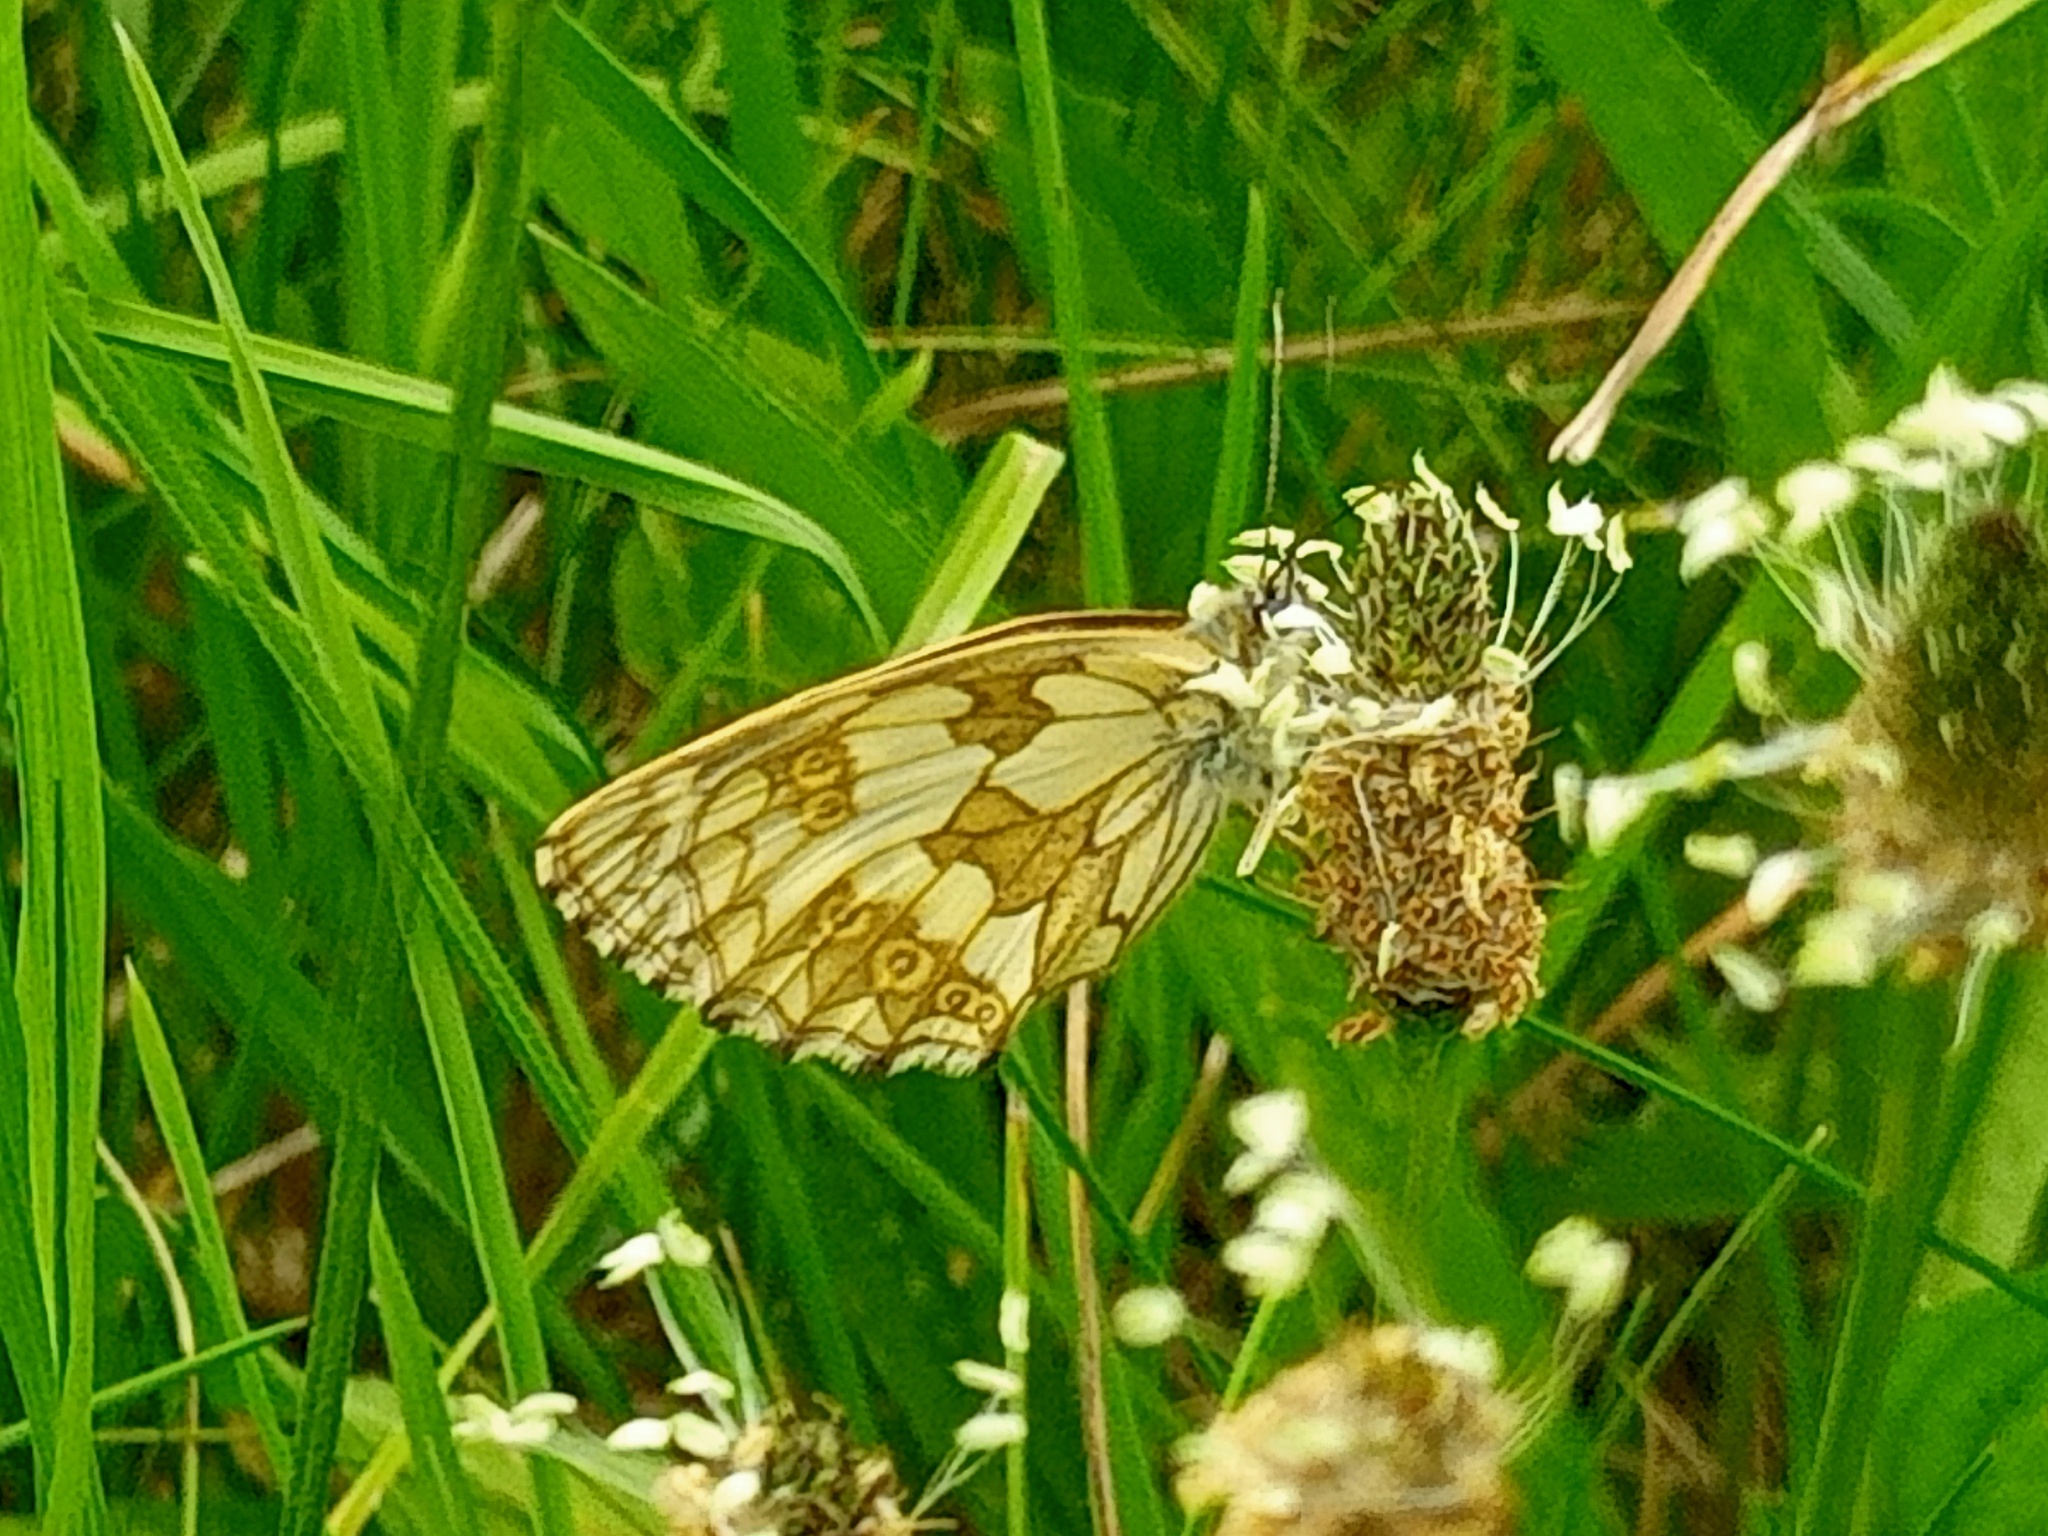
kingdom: Animalia
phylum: Arthropoda
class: Insecta
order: Lepidoptera
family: Nymphalidae
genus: Melanargia
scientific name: Melanargia galathea
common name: Marbled white
